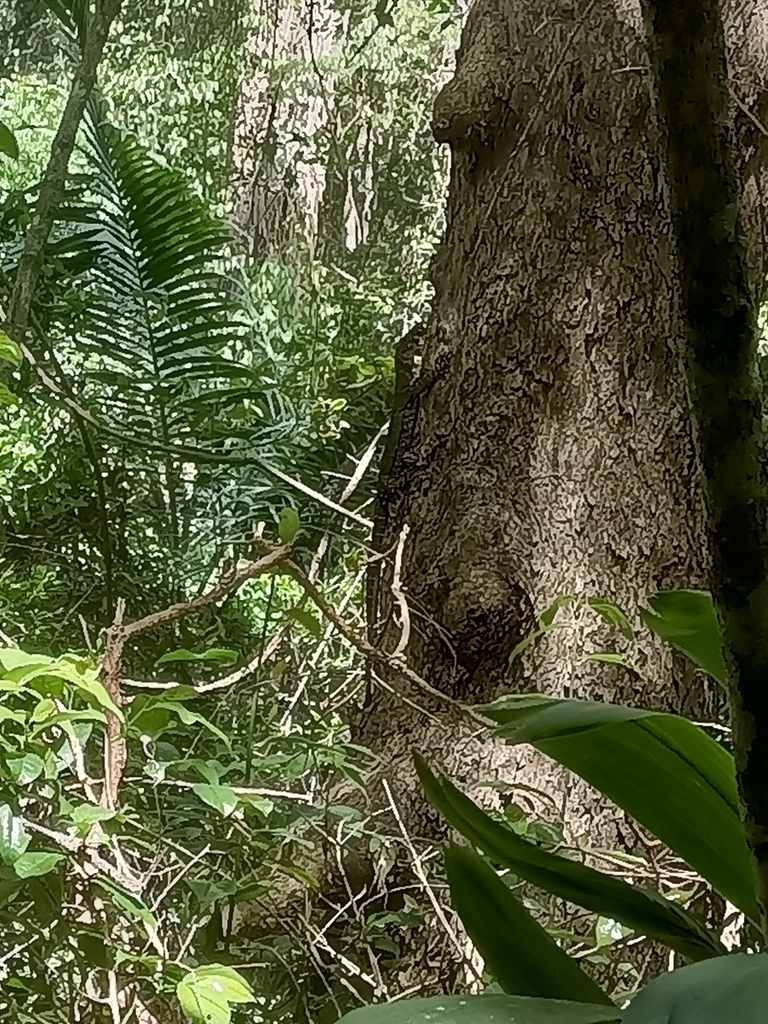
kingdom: Animalia
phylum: Chordata
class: Squamata
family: Varanidae
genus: Varanus
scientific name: Varanus varius
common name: Lace monitor
